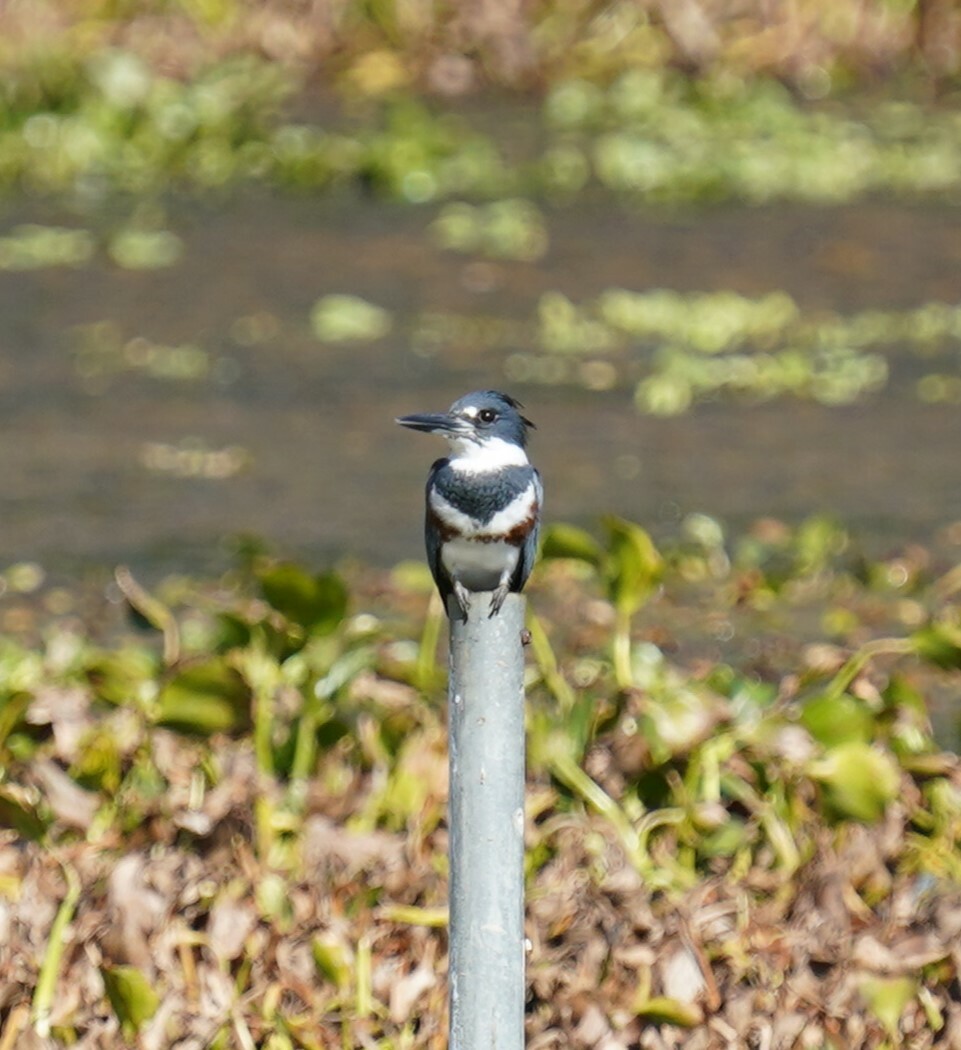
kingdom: Animalia
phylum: Chordata
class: Aves
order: Coraciiformes
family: Alcedinidae
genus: Megaceryle
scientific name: Megaceryle alcyon
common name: Belted kingfisher
